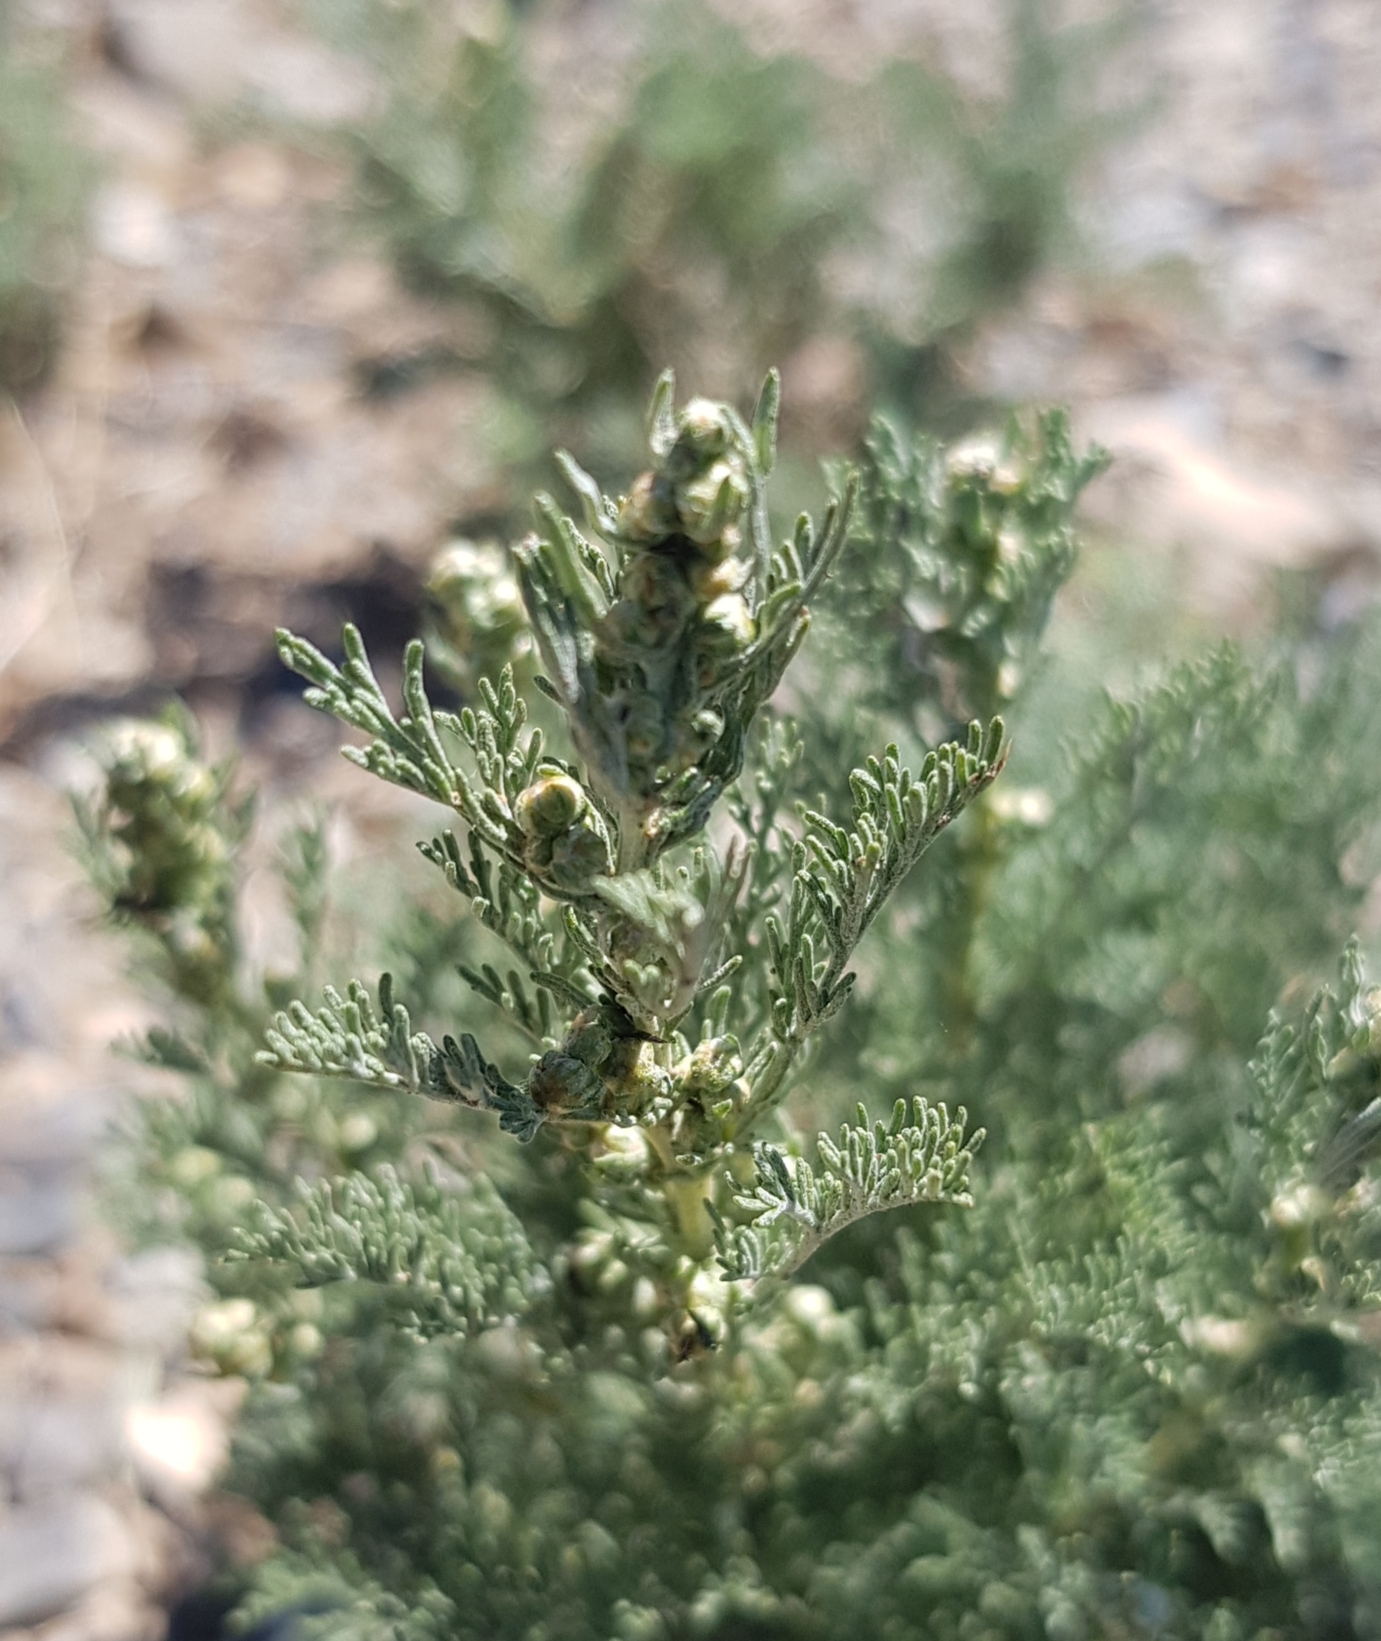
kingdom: Plantae
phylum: Tracheophyta
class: Magnoliopsida
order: Asterales
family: Asteraceae
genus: Artemisia
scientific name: Artemisia adamsii
